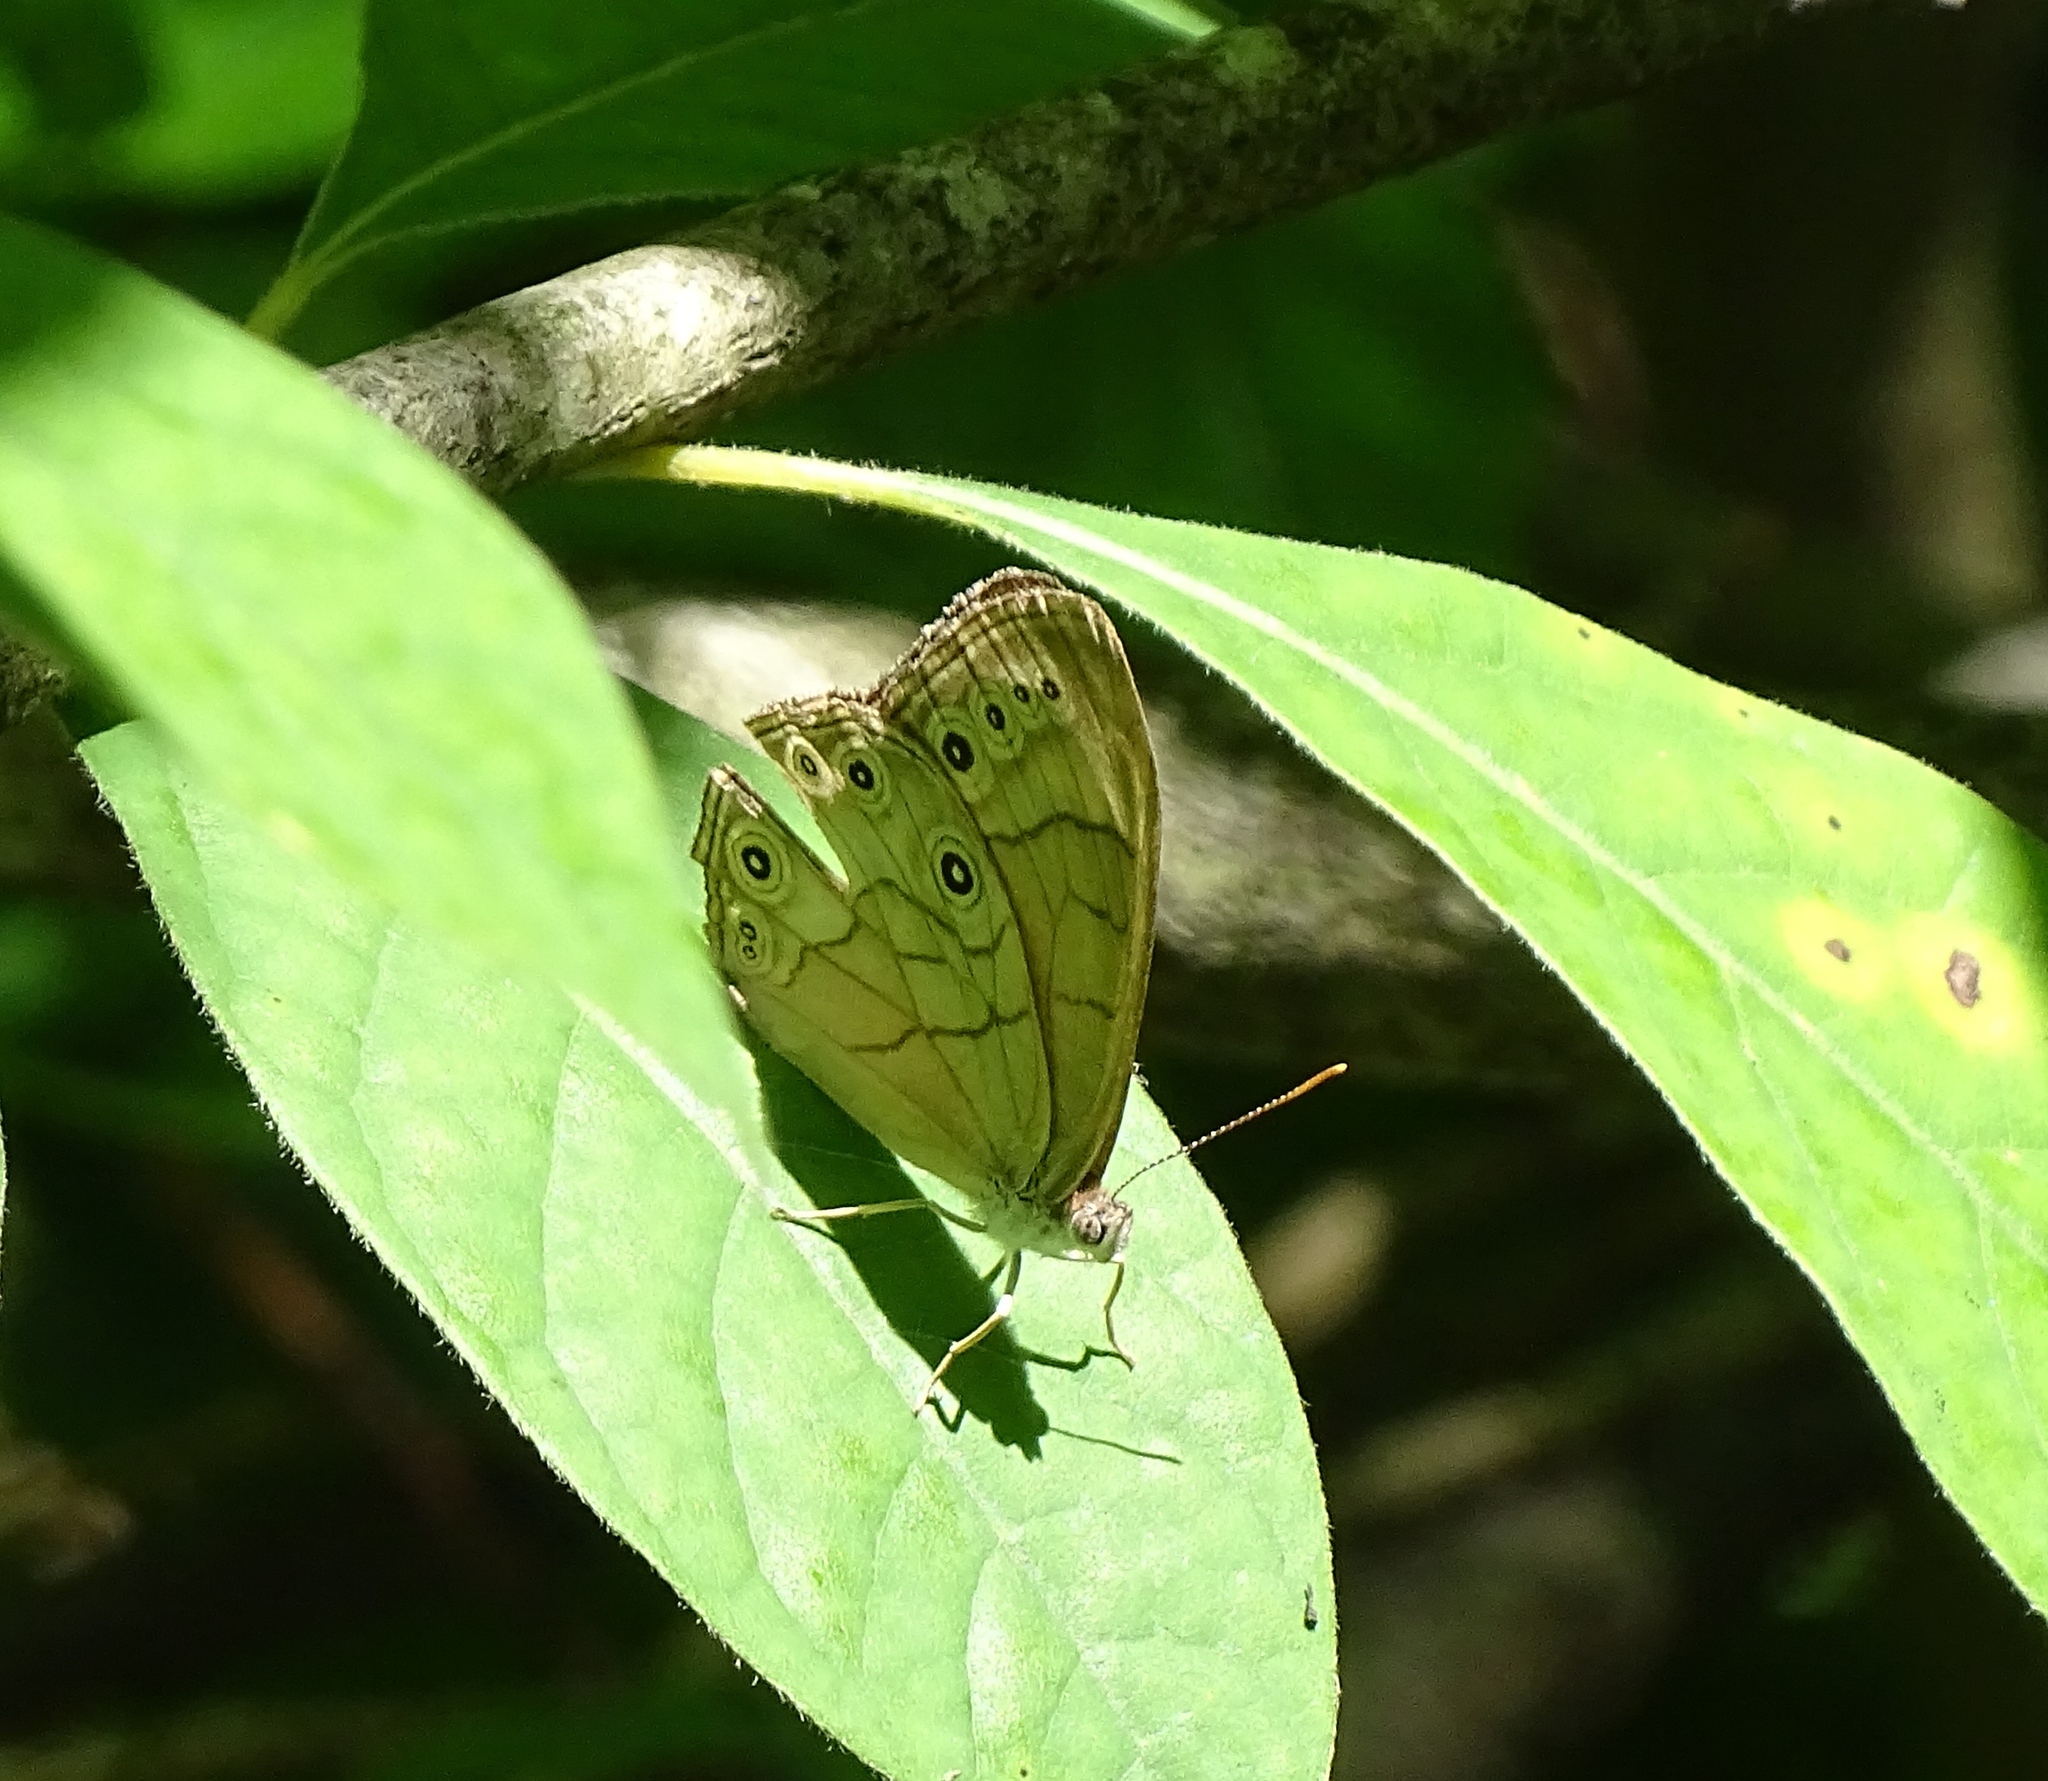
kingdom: Animalia
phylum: Arthropoda
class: Insecta
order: Lepidoptera
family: Nymphalidae
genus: Lethe
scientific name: Lethe eurydice
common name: Eyed brown
